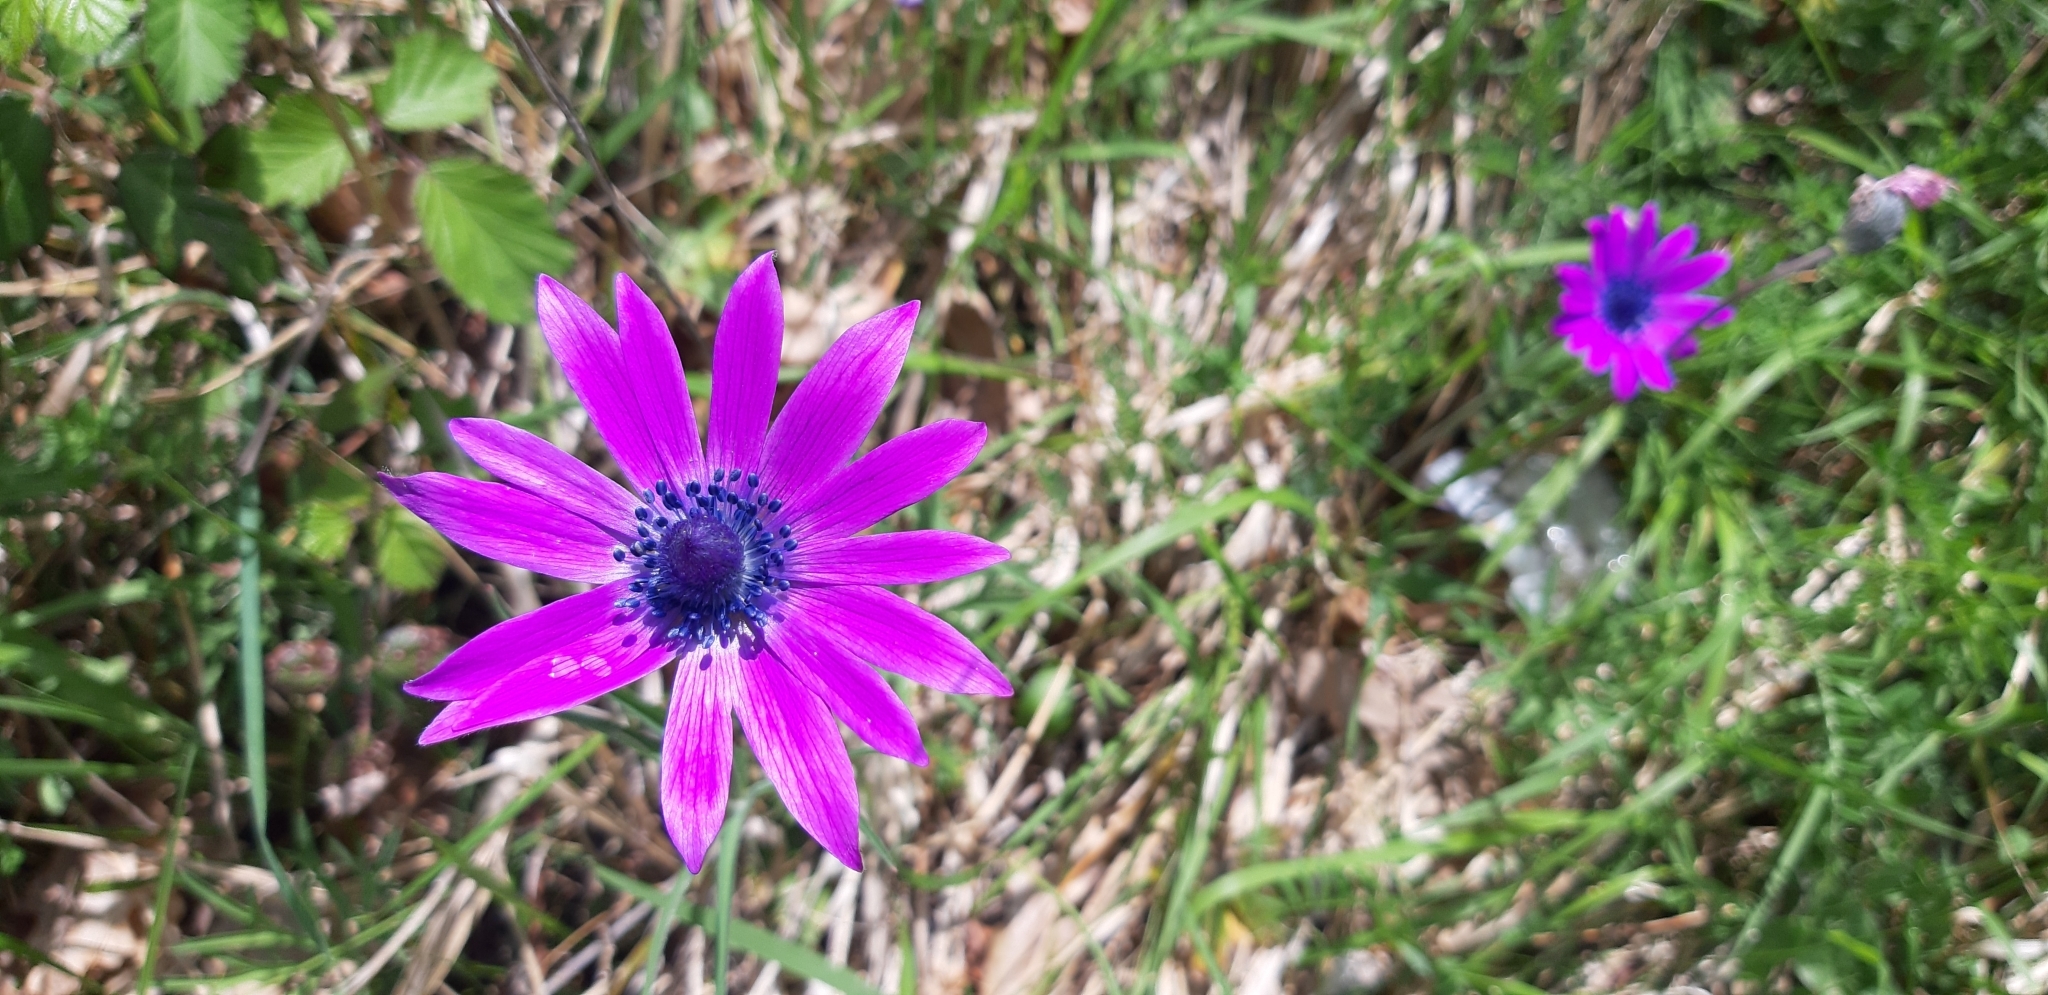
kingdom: Plantae
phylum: Tracheophyta
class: Magnoliopsida
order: Ranunculales
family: Ranunculaceae
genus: Anemone
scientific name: Anemone hortensis
